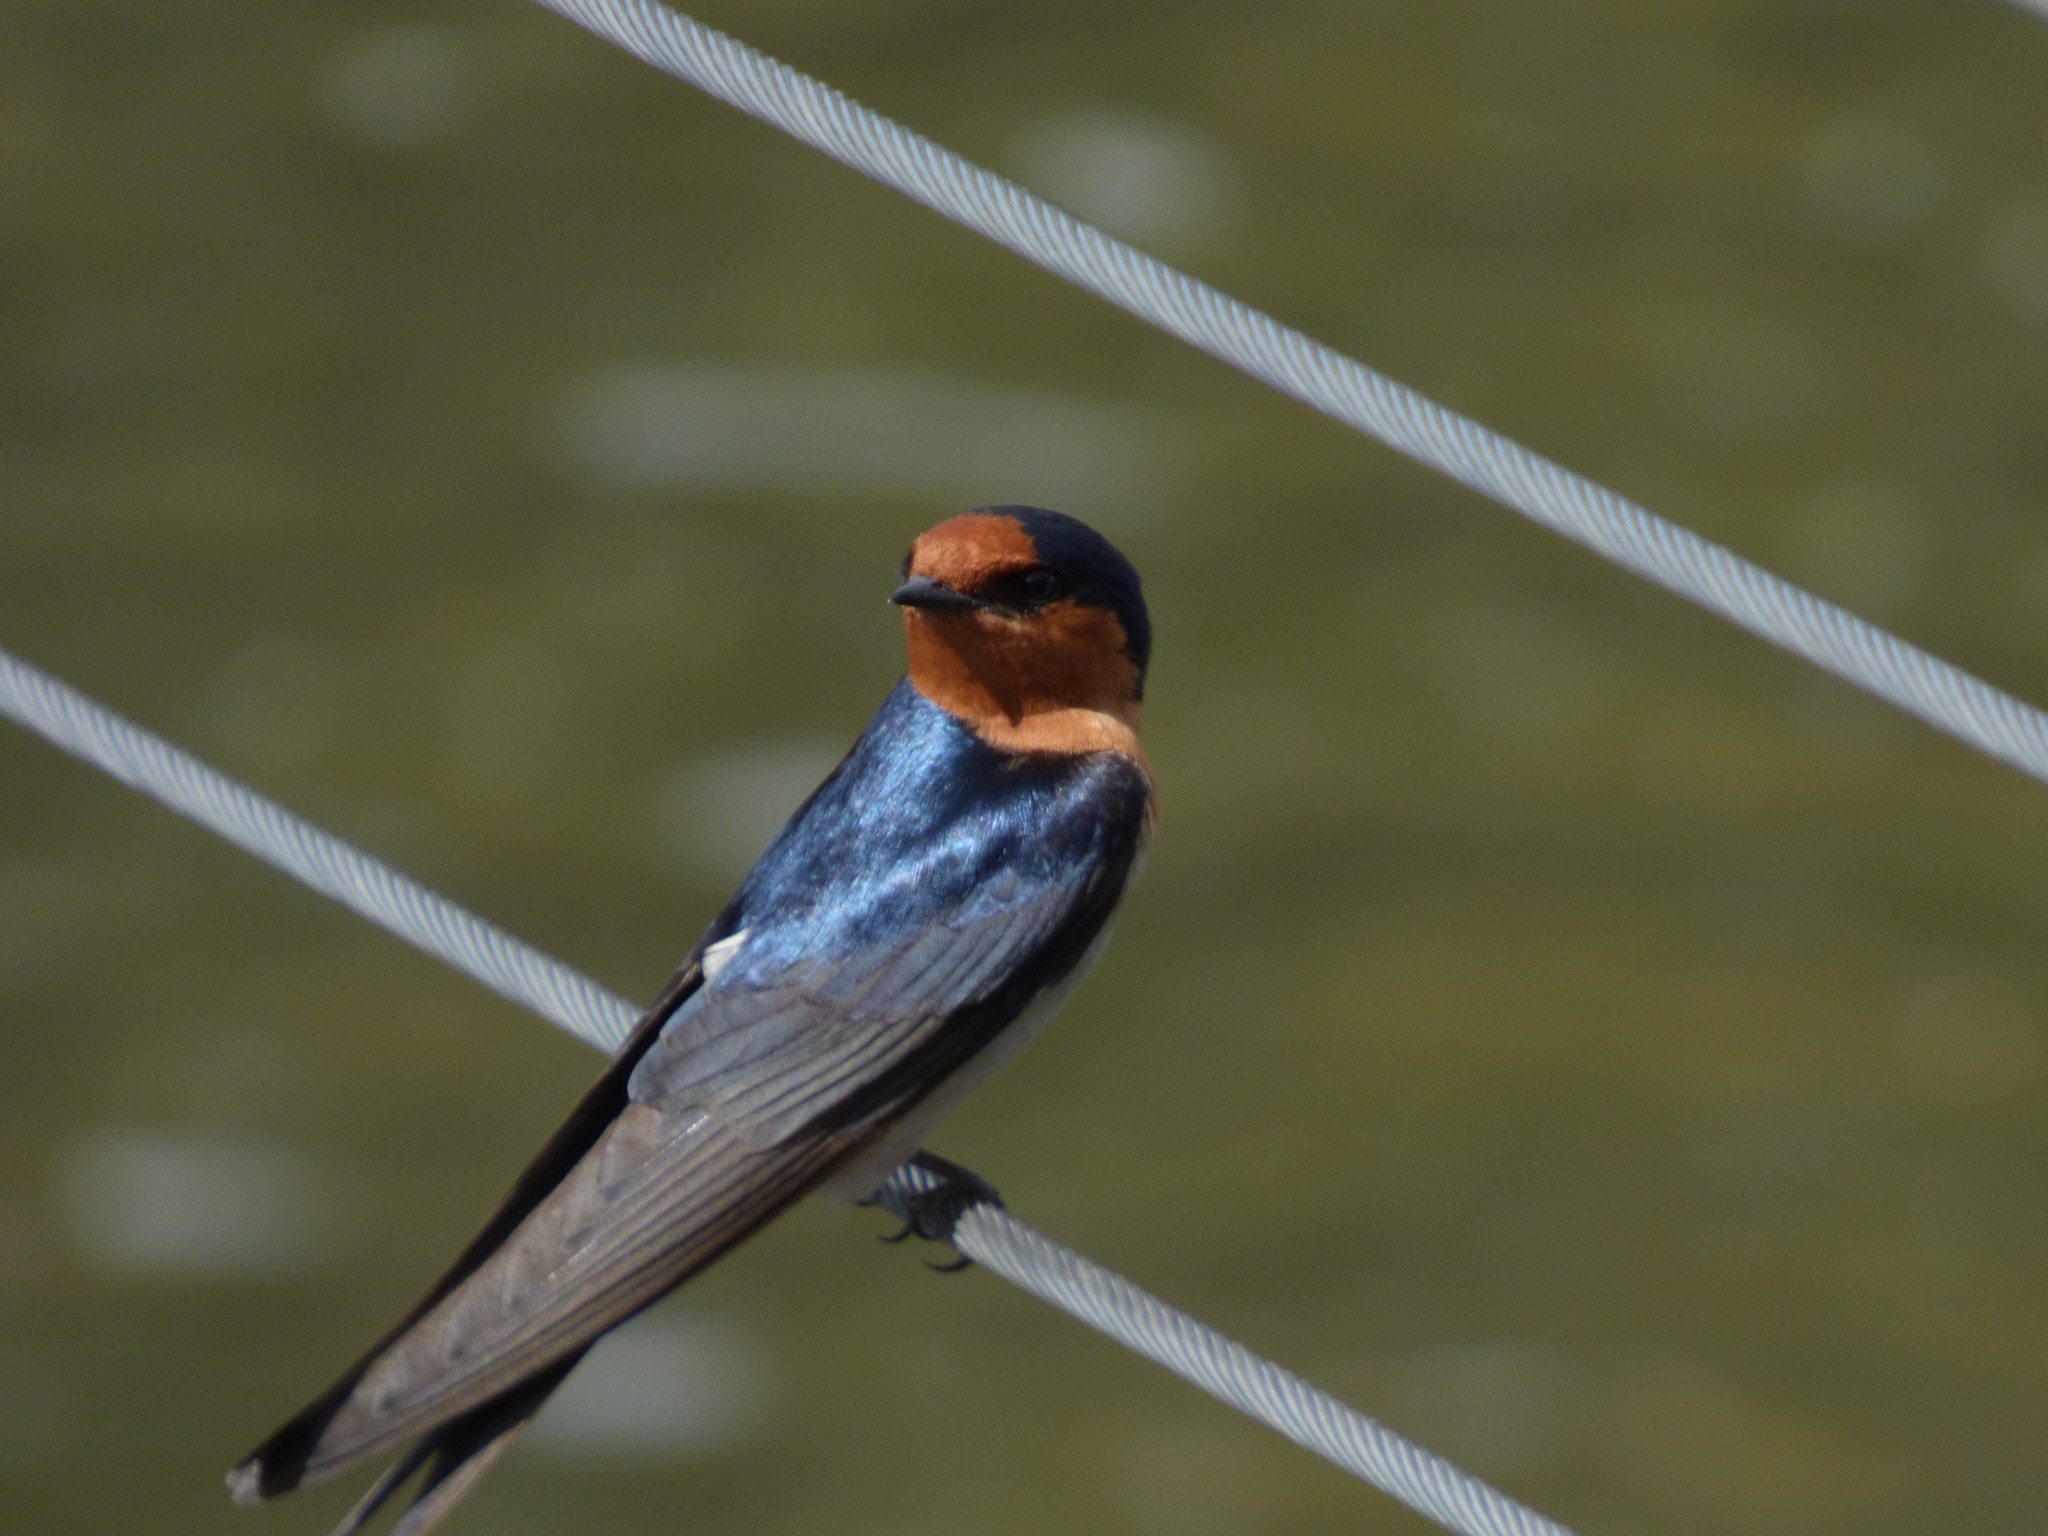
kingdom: Animalia
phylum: Chordata
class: Aves
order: Passeriformes
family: Hirundinidae
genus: Hirundo
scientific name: Hirundo neoxena
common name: Welcome swallow
